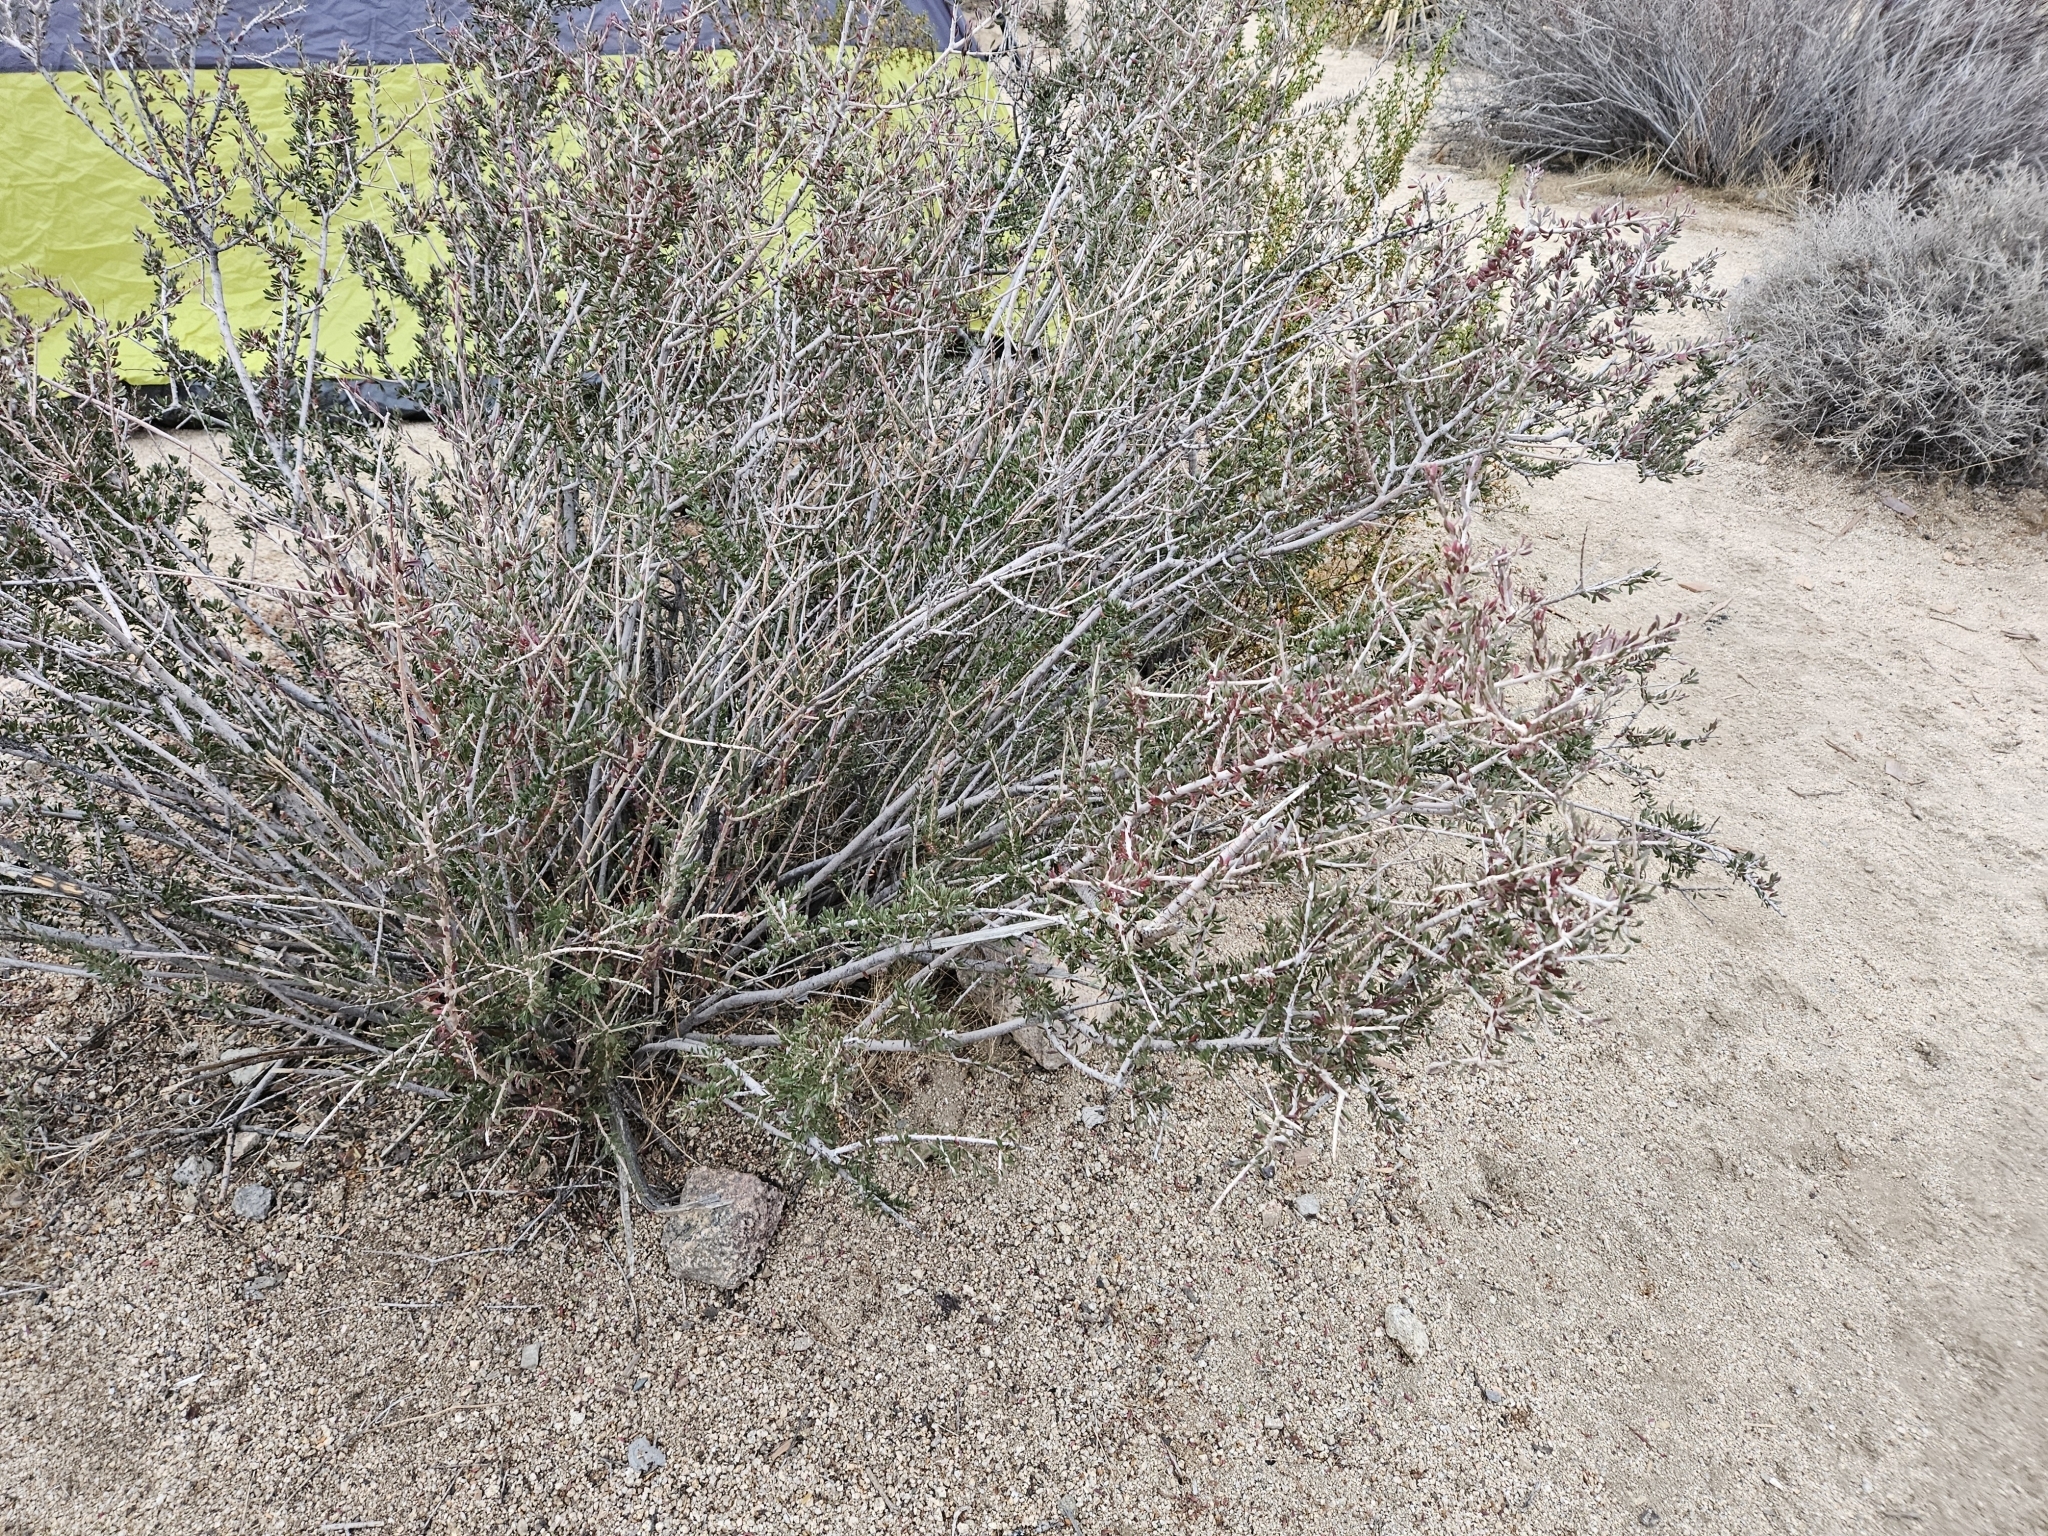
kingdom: Plantae
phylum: Tracheophyta
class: Magnoliopsida
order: Malpighiales
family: Picrodendraceae
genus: Tetracoccus
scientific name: Tetracoccus hallii
